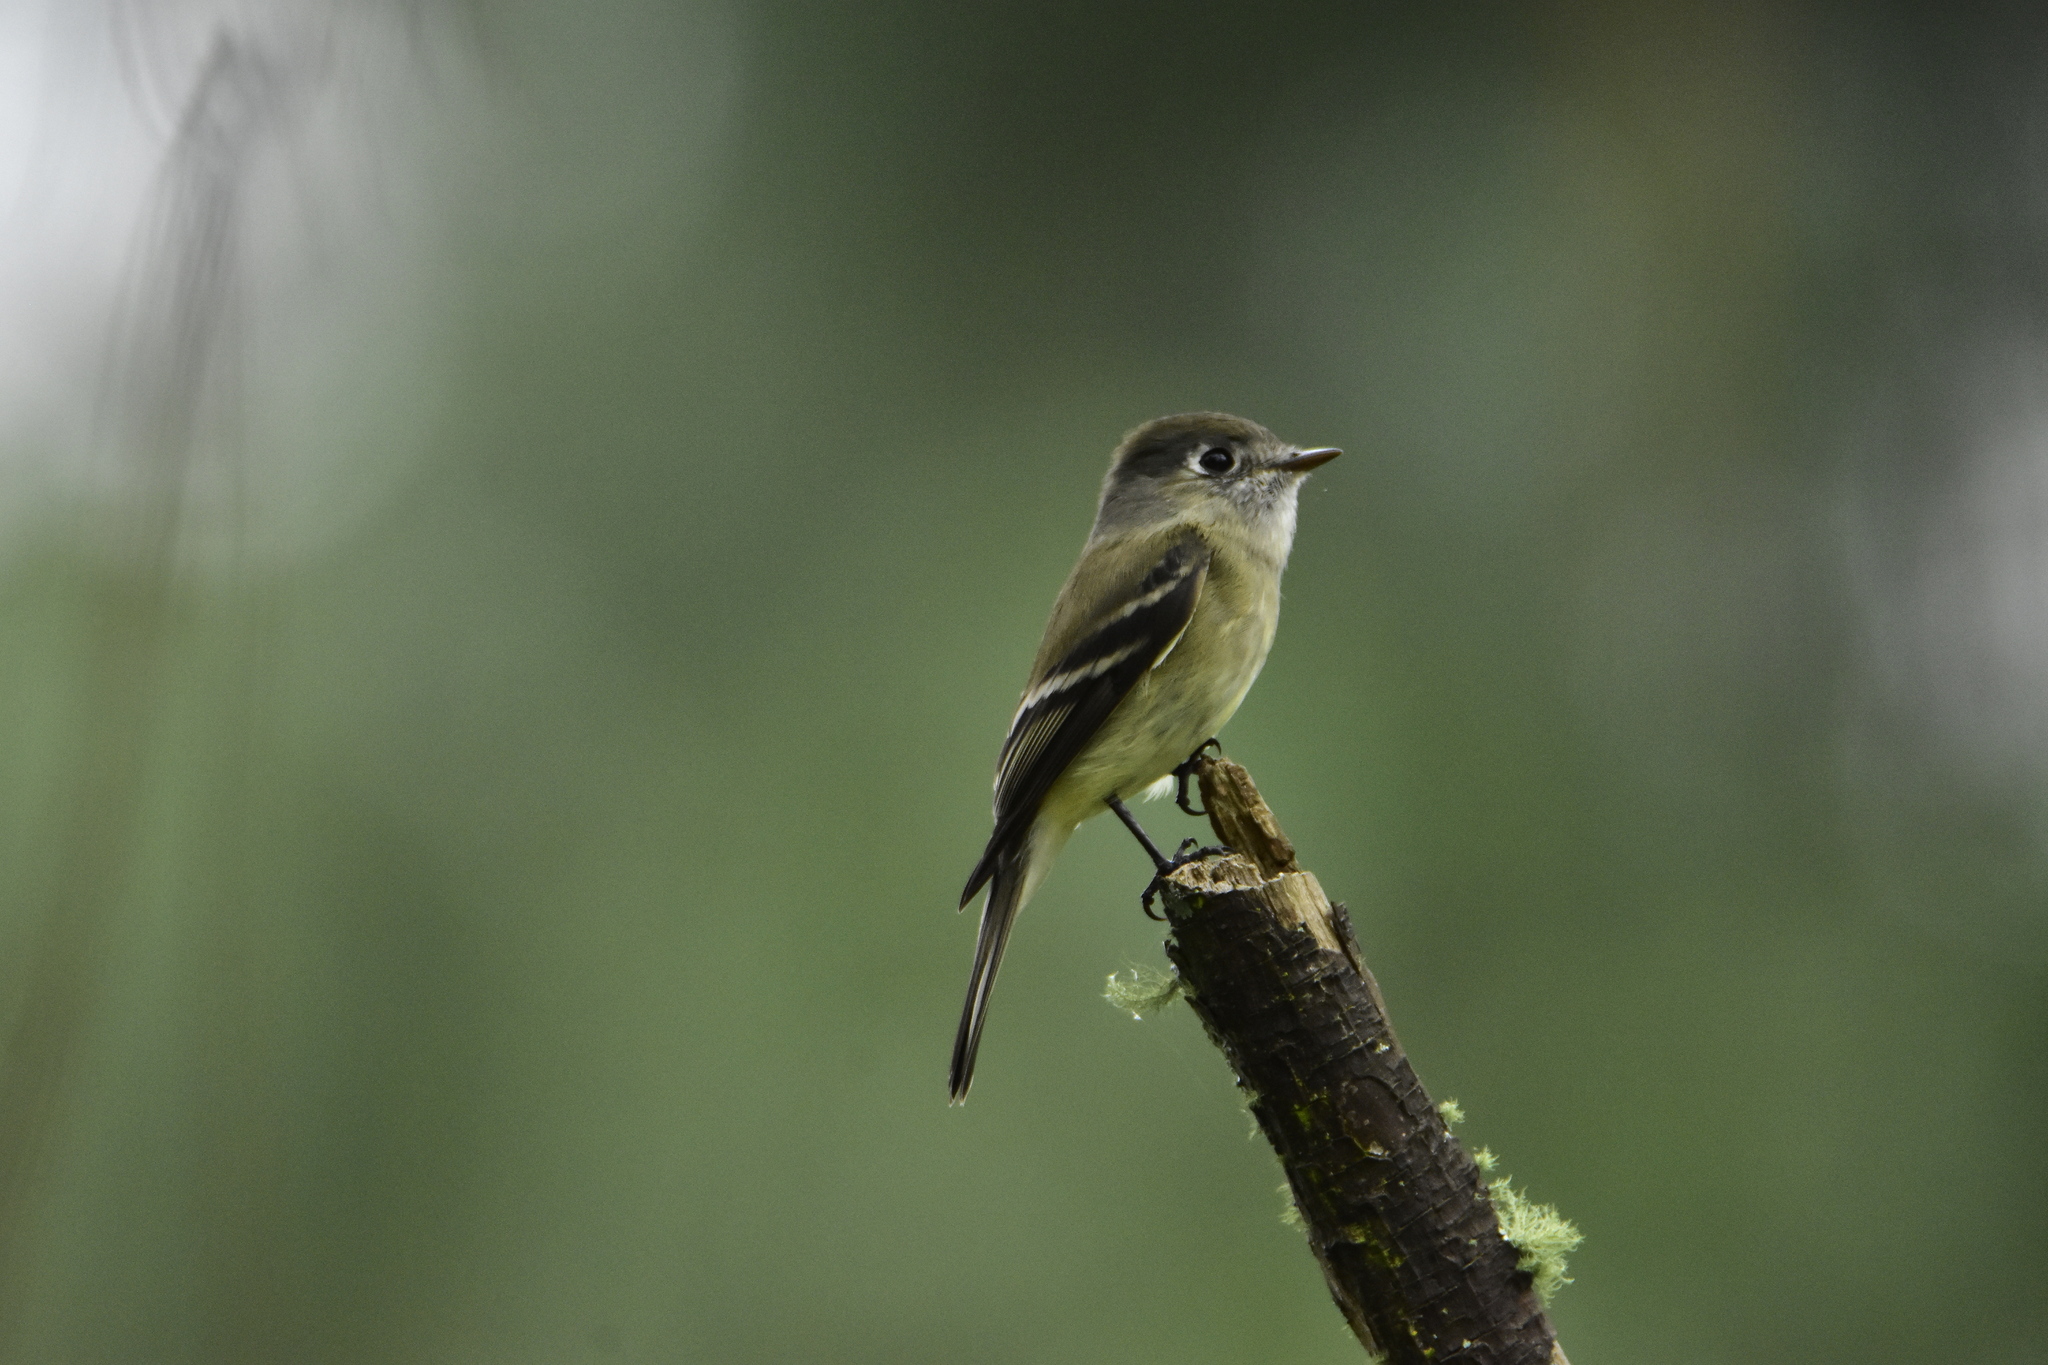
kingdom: Animalia
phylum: Chordata
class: Aves
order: Passeriformes
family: Tyrannidae
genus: Empidonax
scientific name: Empidonax hammondii
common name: Hammond's flycatcher
